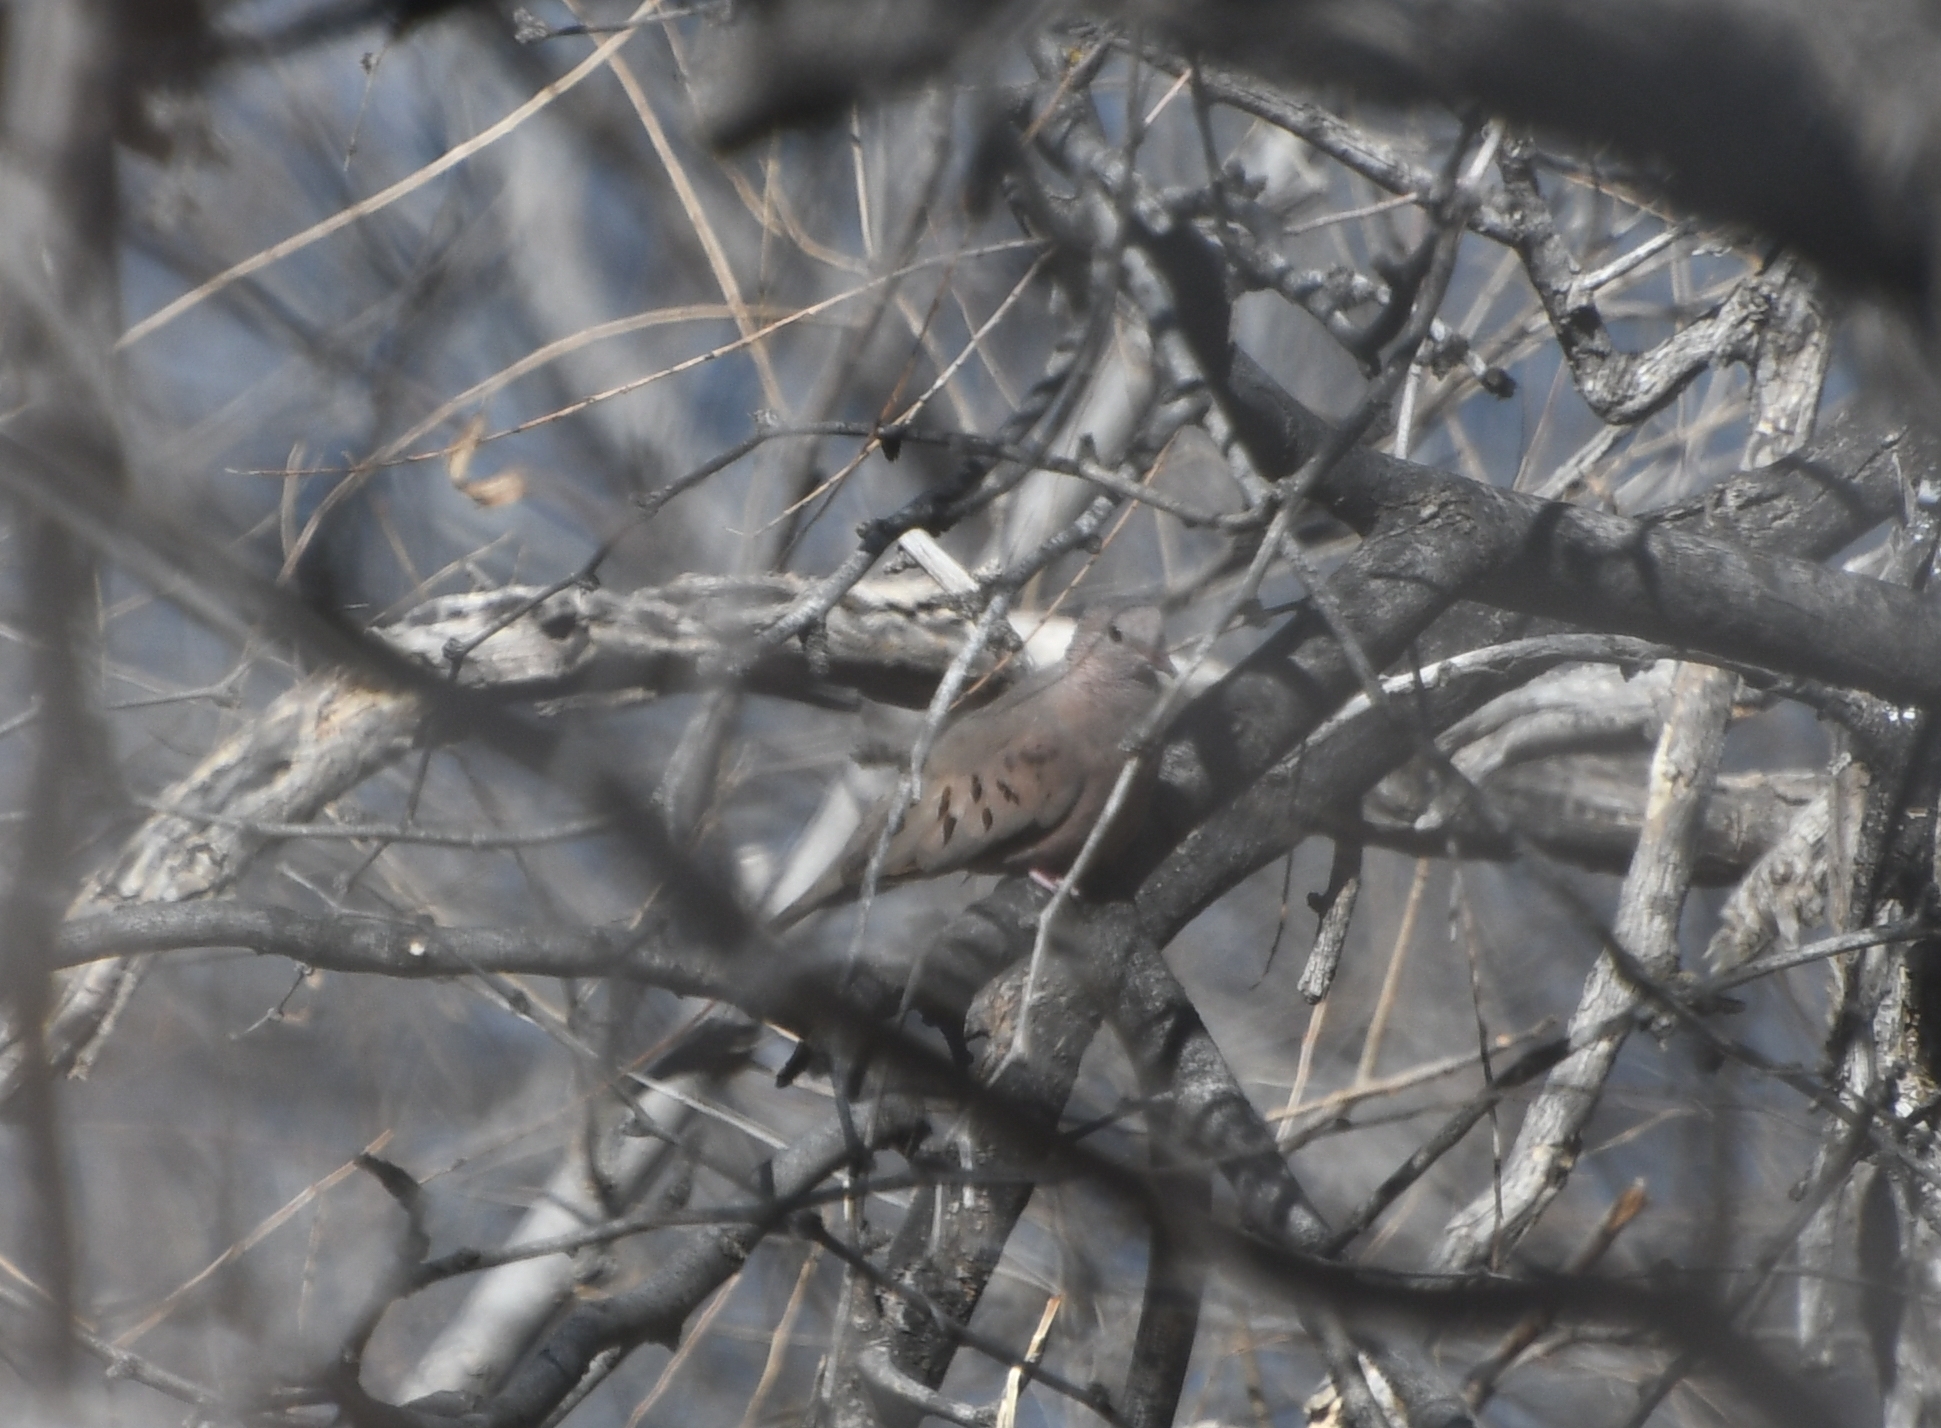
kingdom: Animalia
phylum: Chordata
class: Aves
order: Columbiformes
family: Columbidae
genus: Columbina
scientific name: Columbina passerina
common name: Common ground-dove
